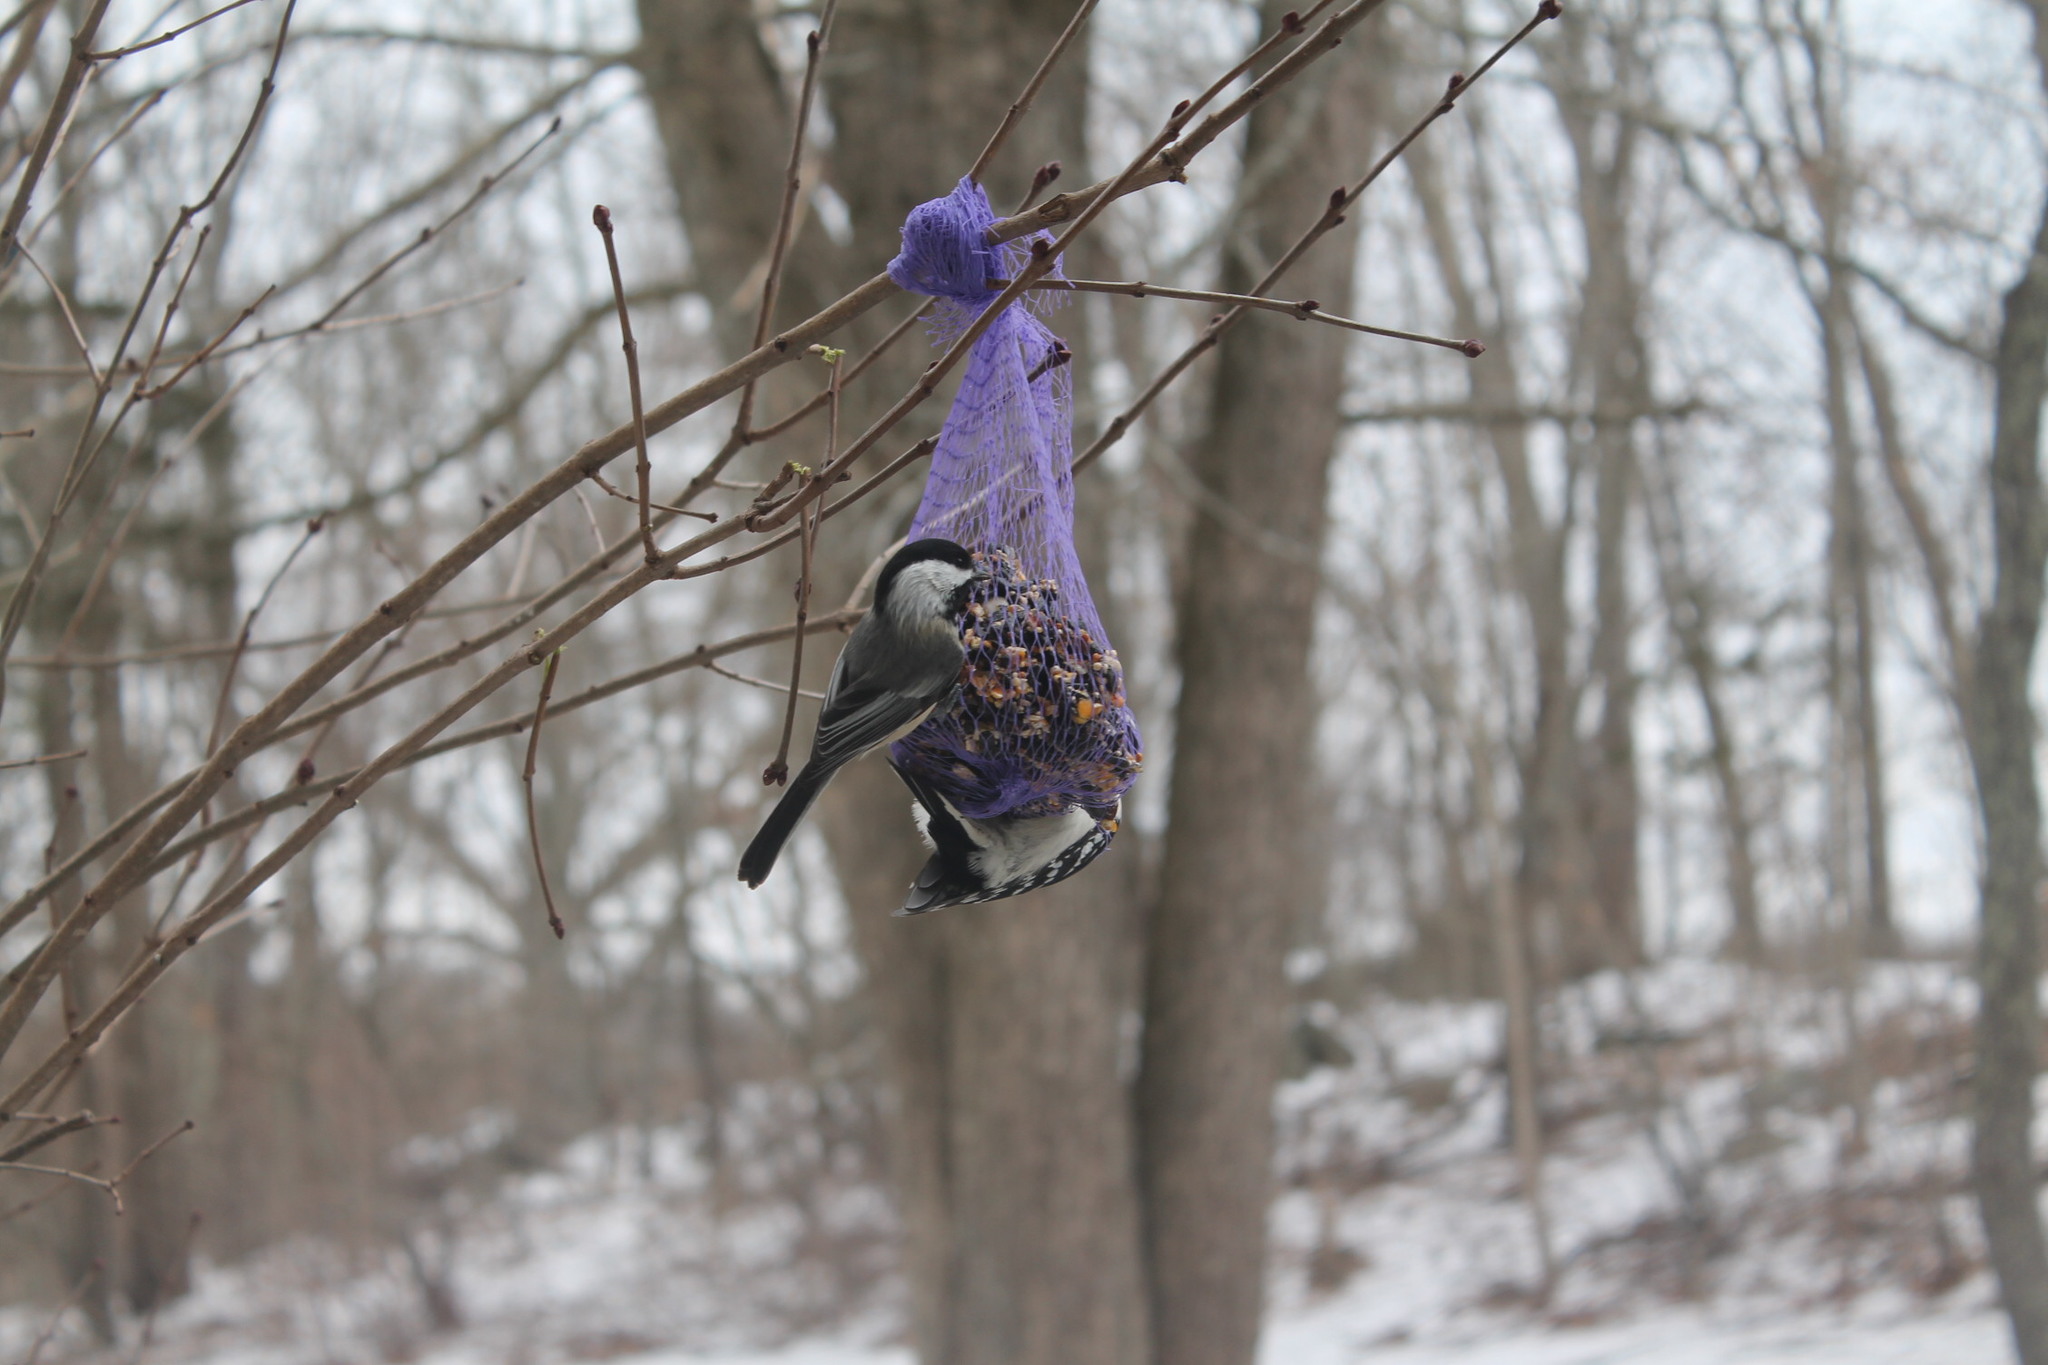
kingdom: Animalia
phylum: Chordata
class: Aves
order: Passeriformes
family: Paridae
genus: Poecile
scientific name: Poecile atricapillus
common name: Black-capped chickadee
